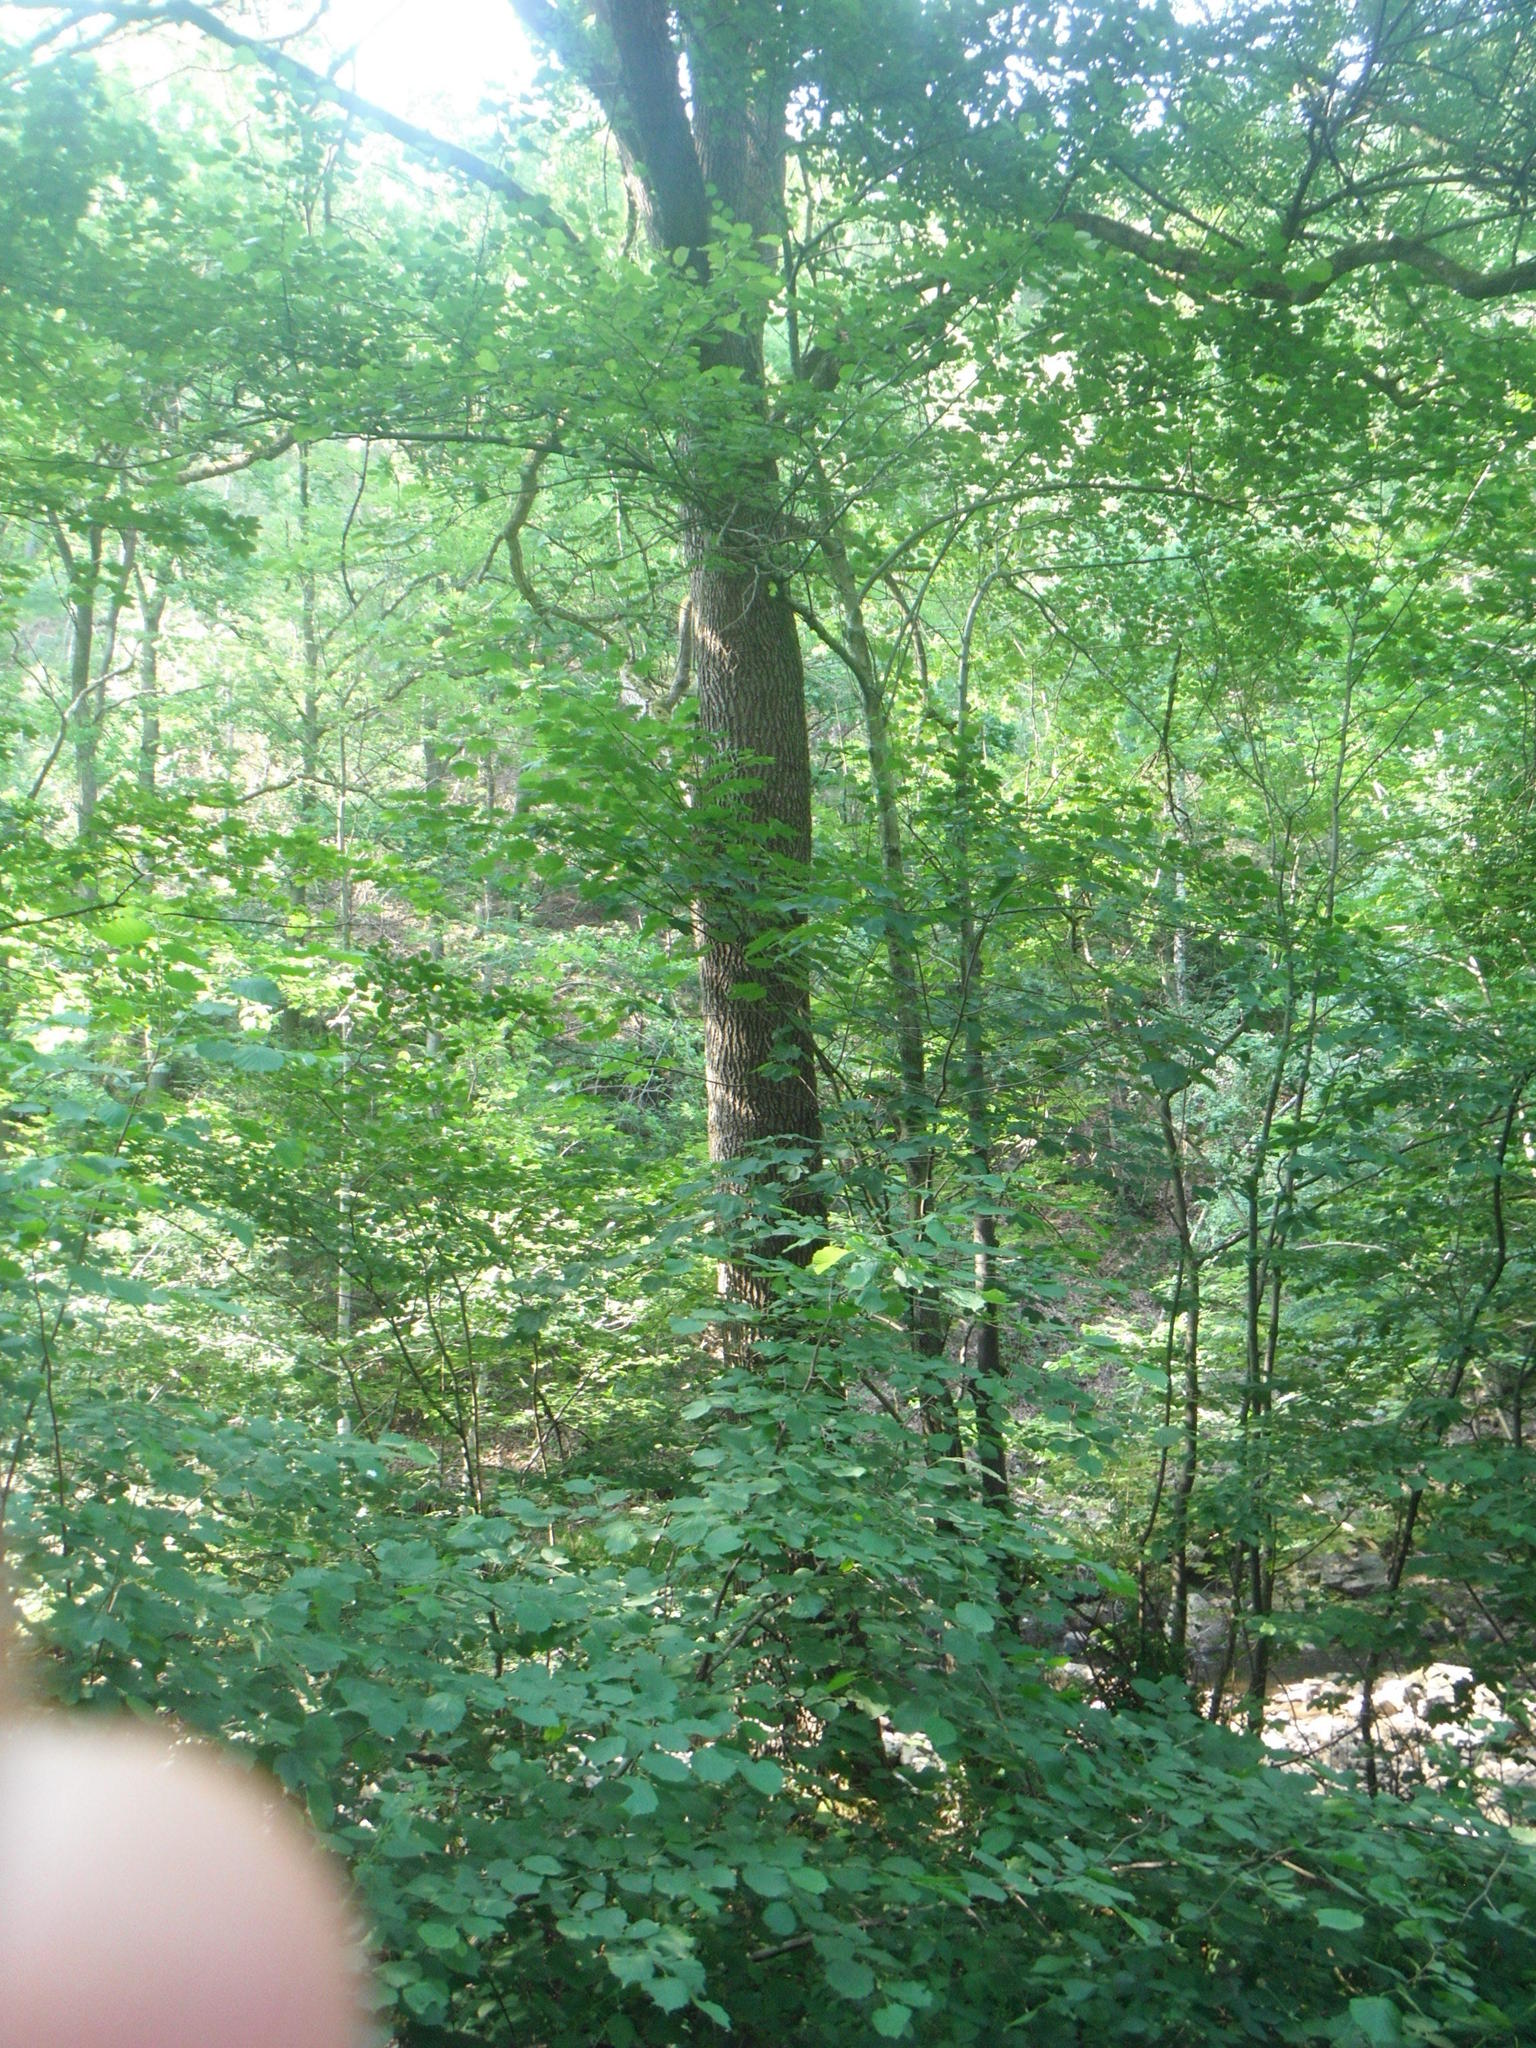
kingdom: Plantae
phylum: Tracheophyta
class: Magnoliopsida
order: Lamiales
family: Oleaceae
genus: Fraxinus
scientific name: Fraxinus excelsior
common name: European ash
